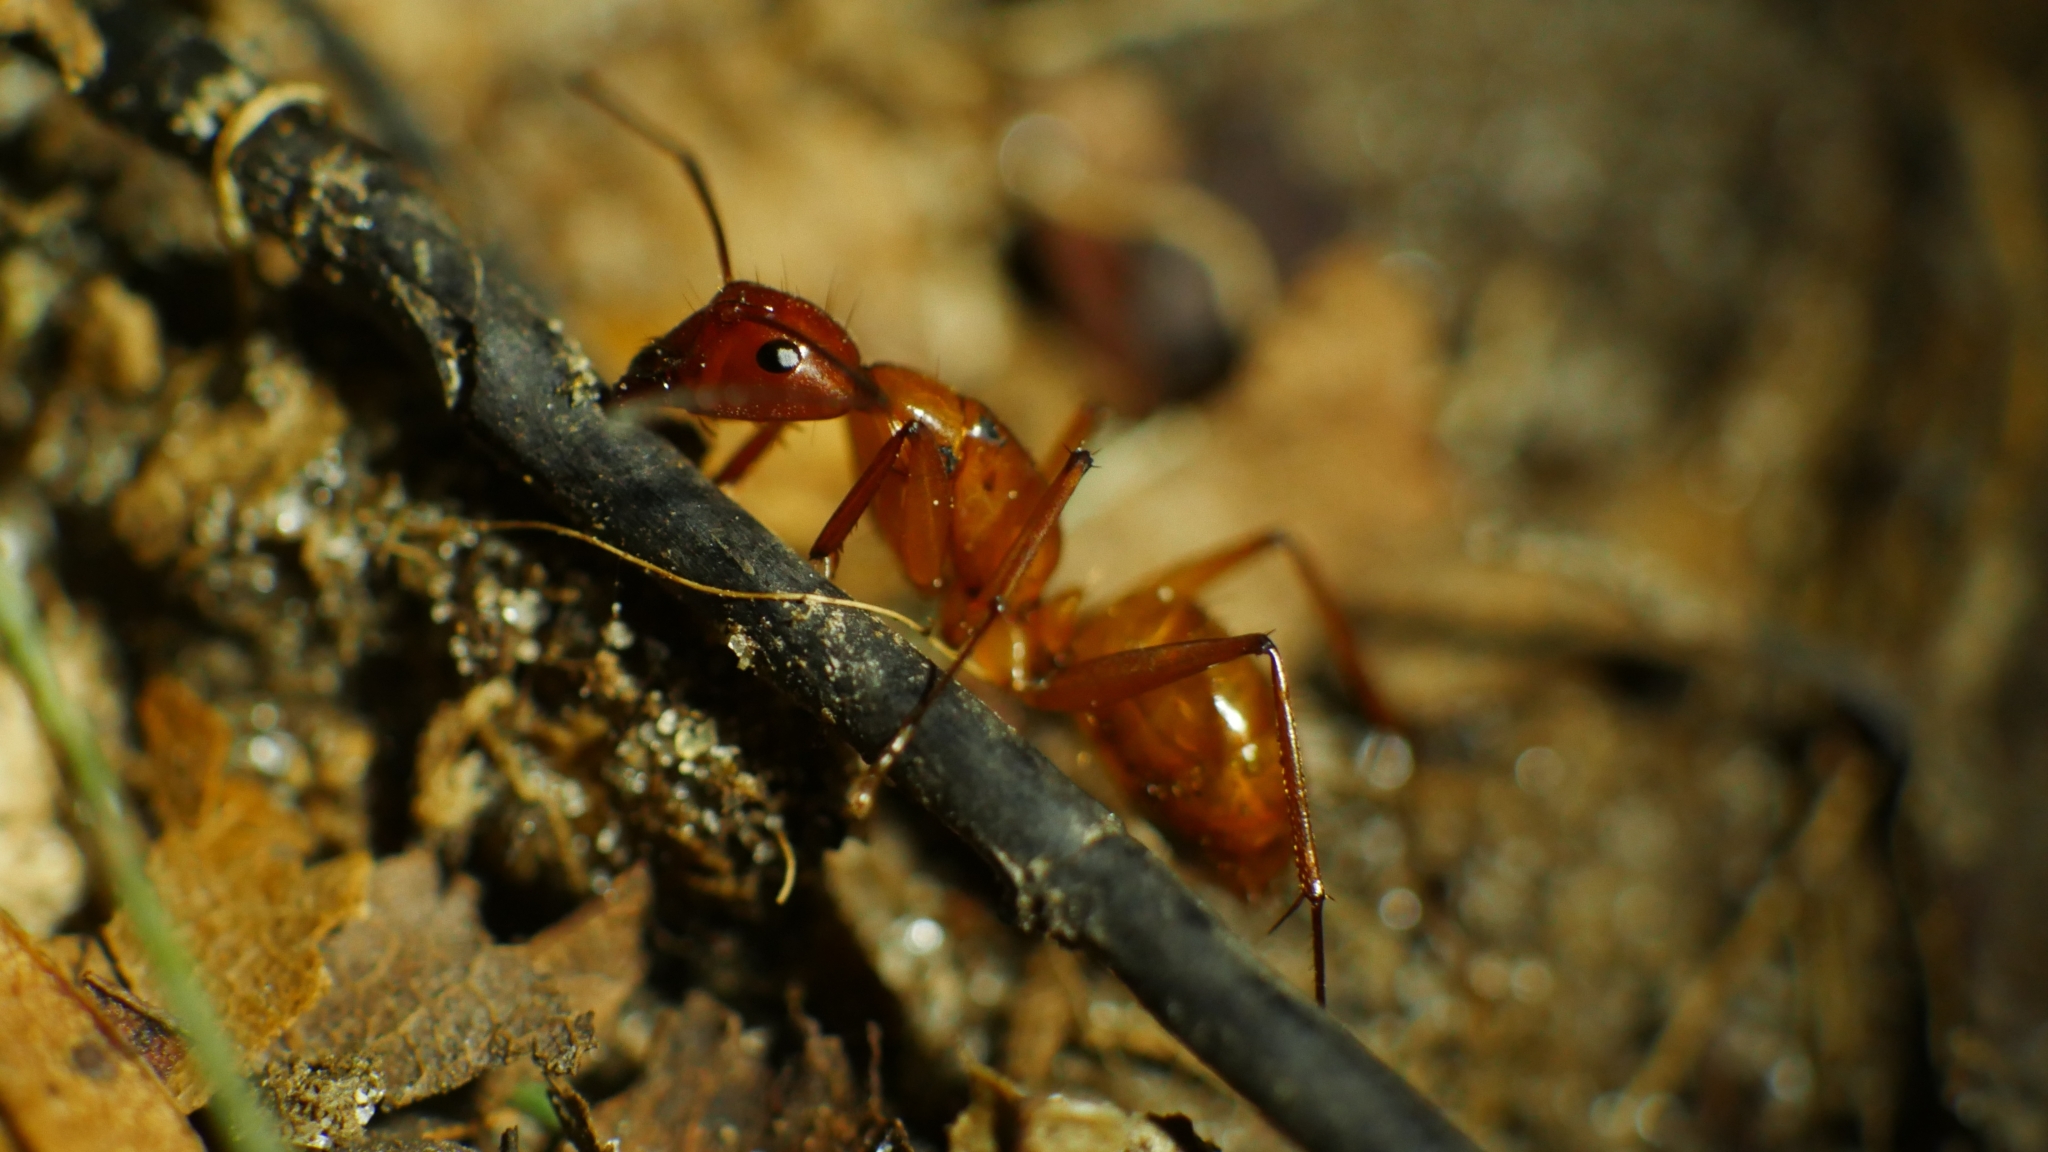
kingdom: Animalia
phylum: Arthropoda
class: Insecta
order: Hymenoptera
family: Formicidae
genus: Camponotus
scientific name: Camponotus castaneus
